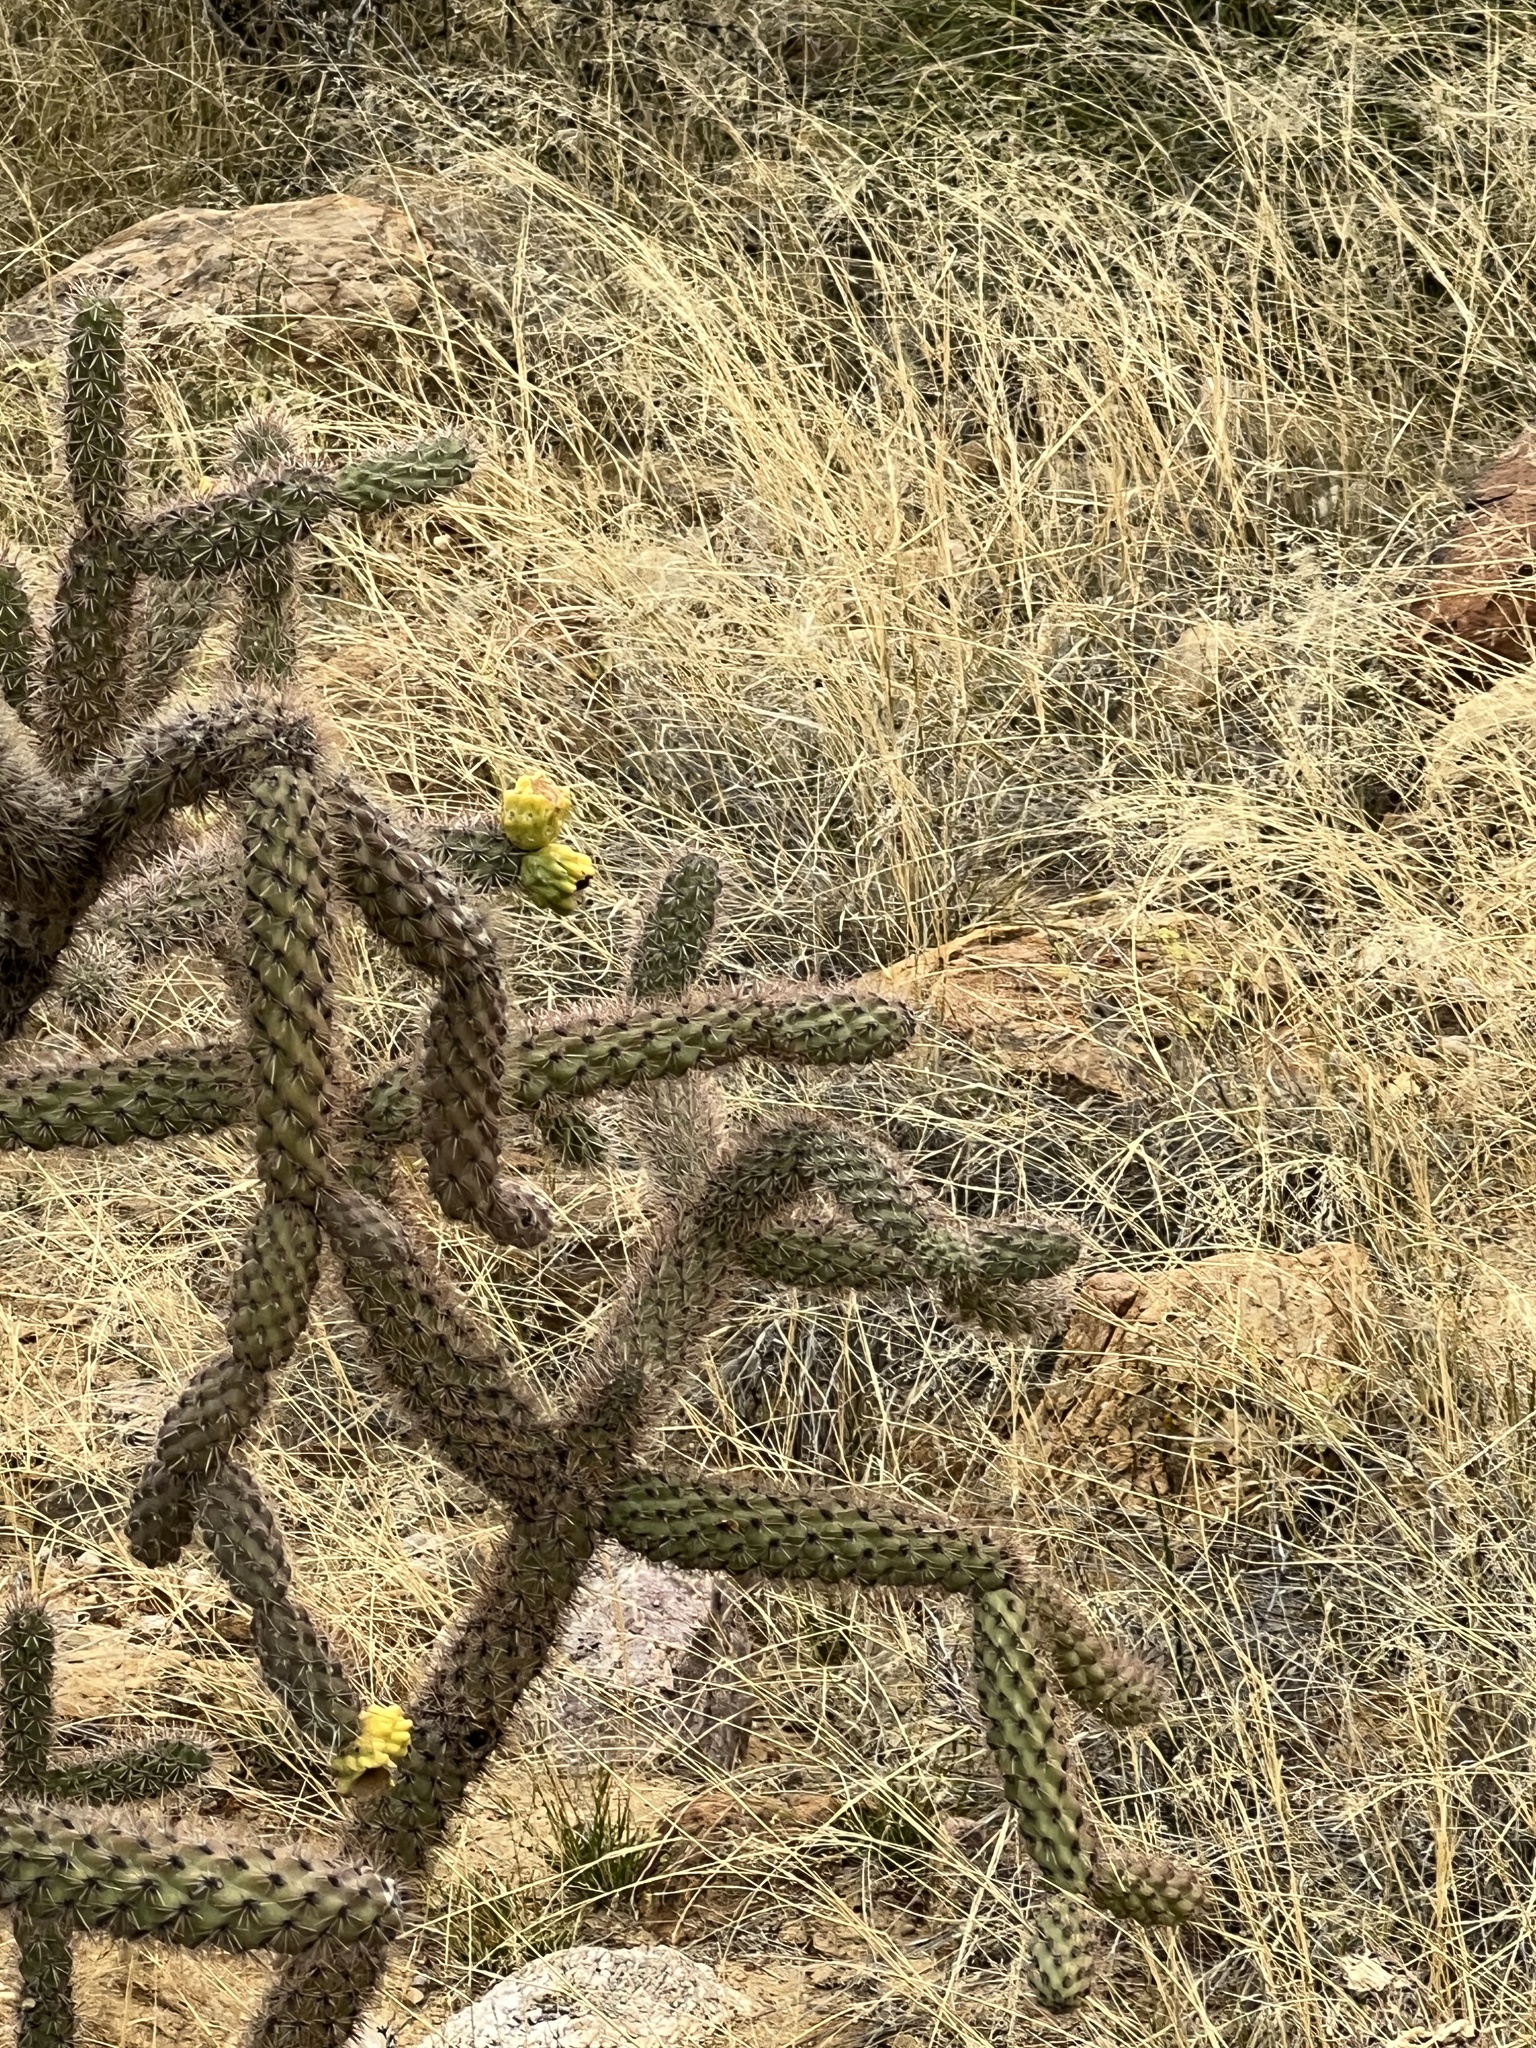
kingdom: Plantae
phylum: Tracheophyta
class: Magnoliopsida
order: Caryophyllales
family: Cactaceae
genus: Cylindropuntia
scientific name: Cylindropuntia imbricata
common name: Candelabrum cactus
